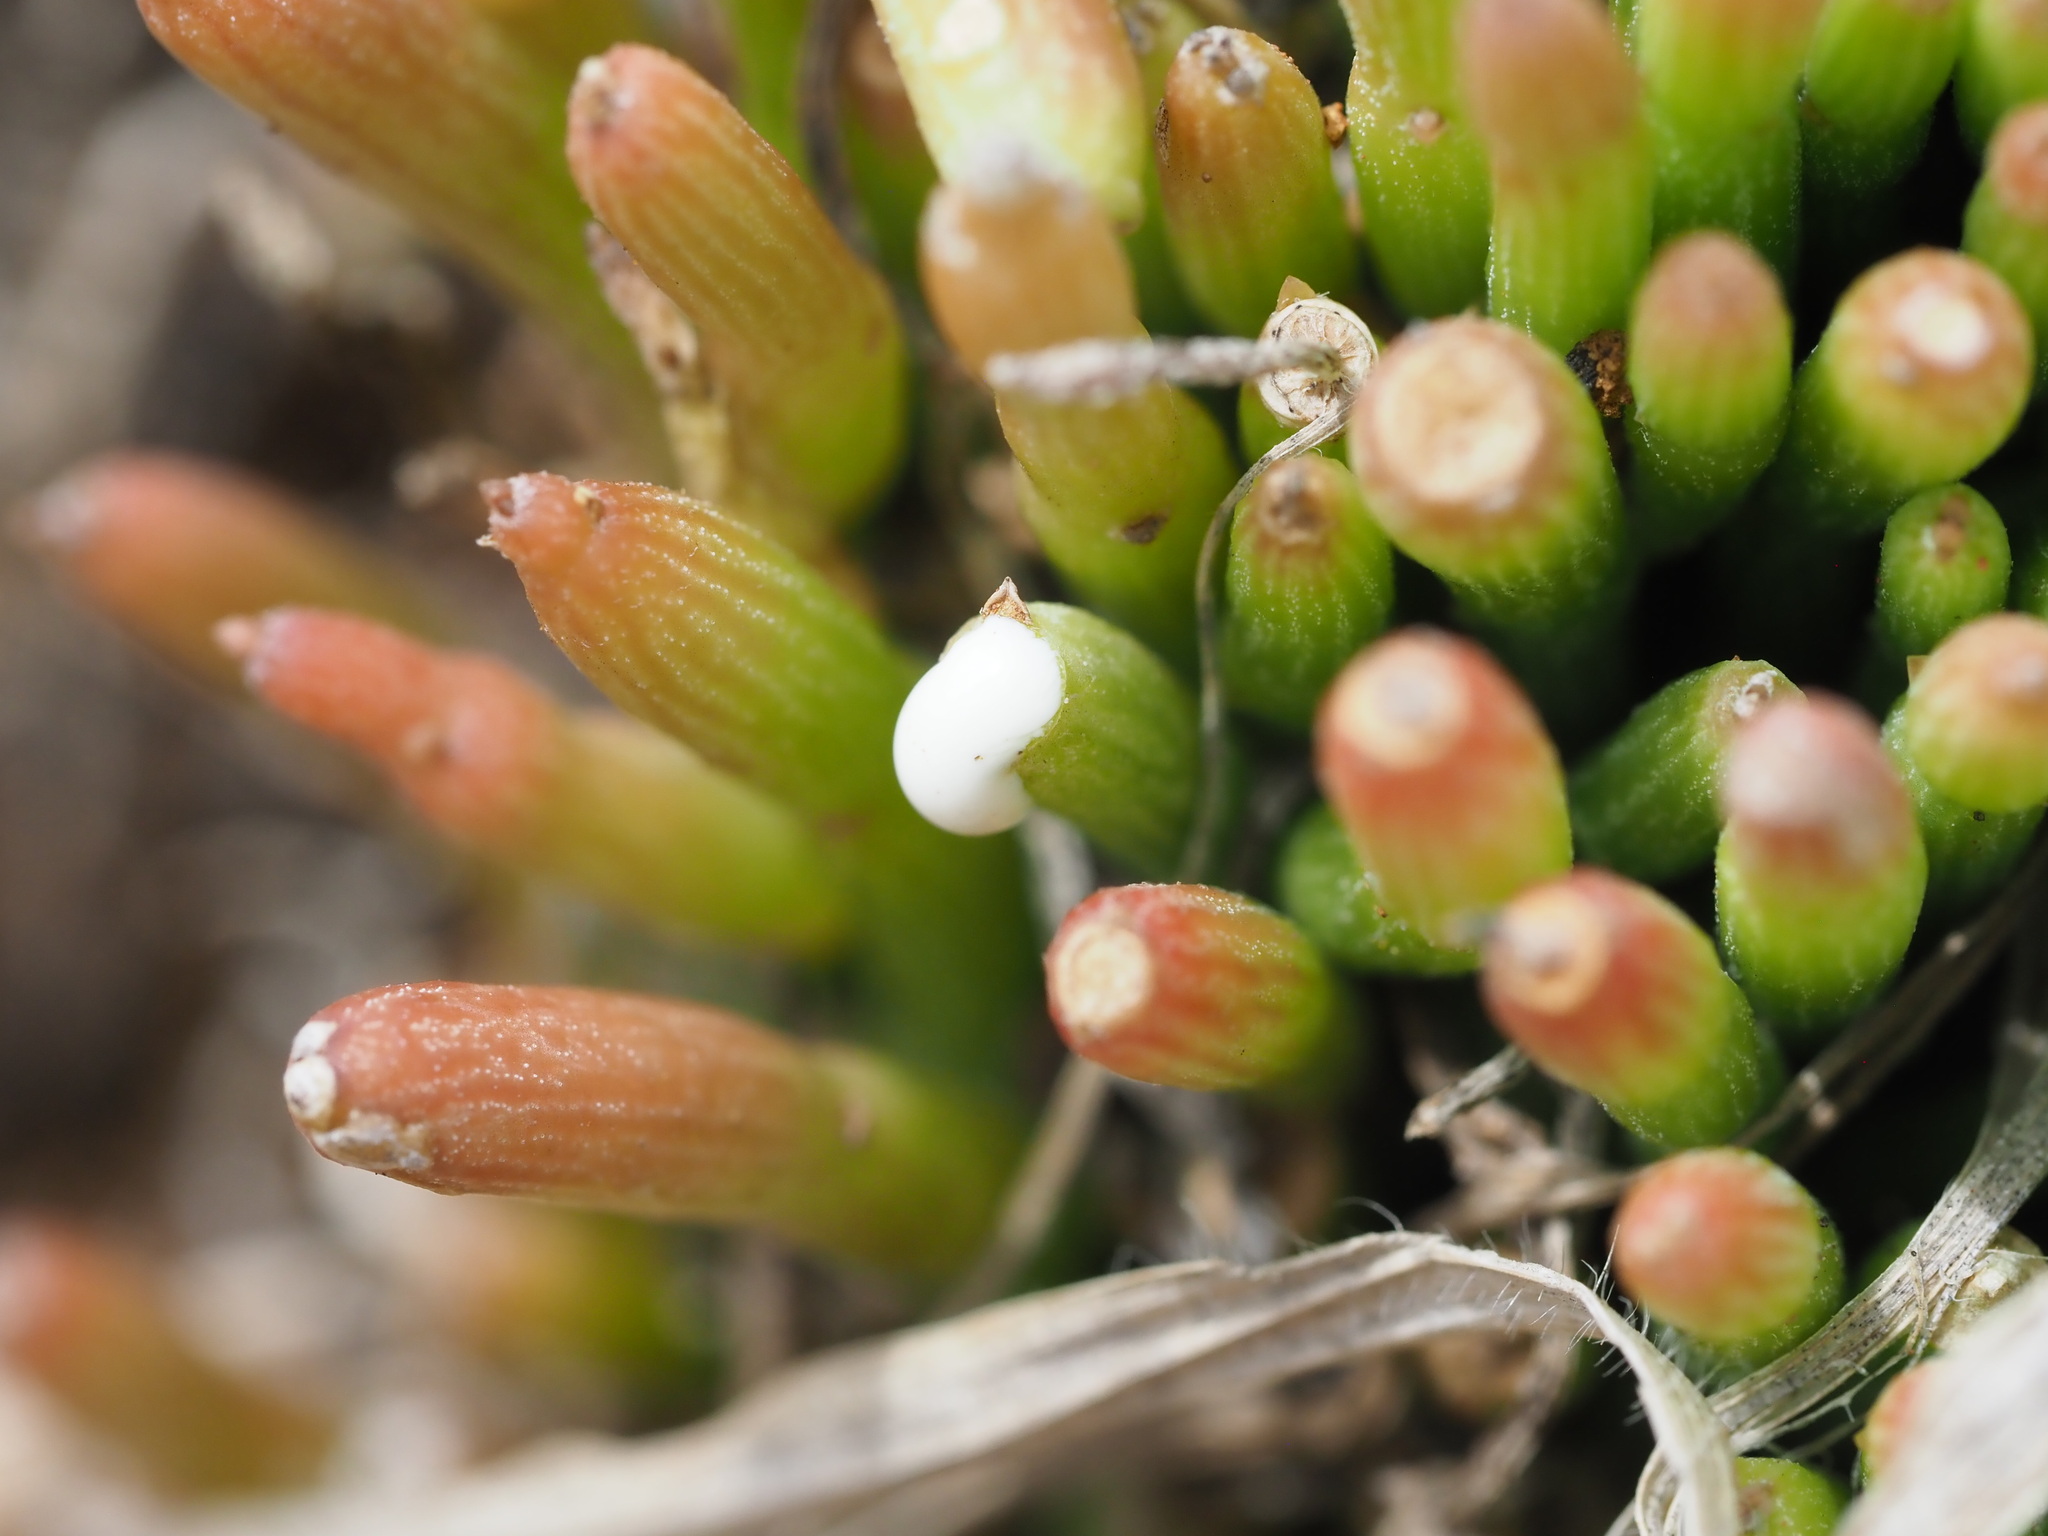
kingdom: Plantae
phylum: Tracheophyta
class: Magnoliopsida
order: Gentianales
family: Apocynaceae
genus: Cynanchum
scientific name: Cynanchum gerrardi
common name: Swallow-wort
